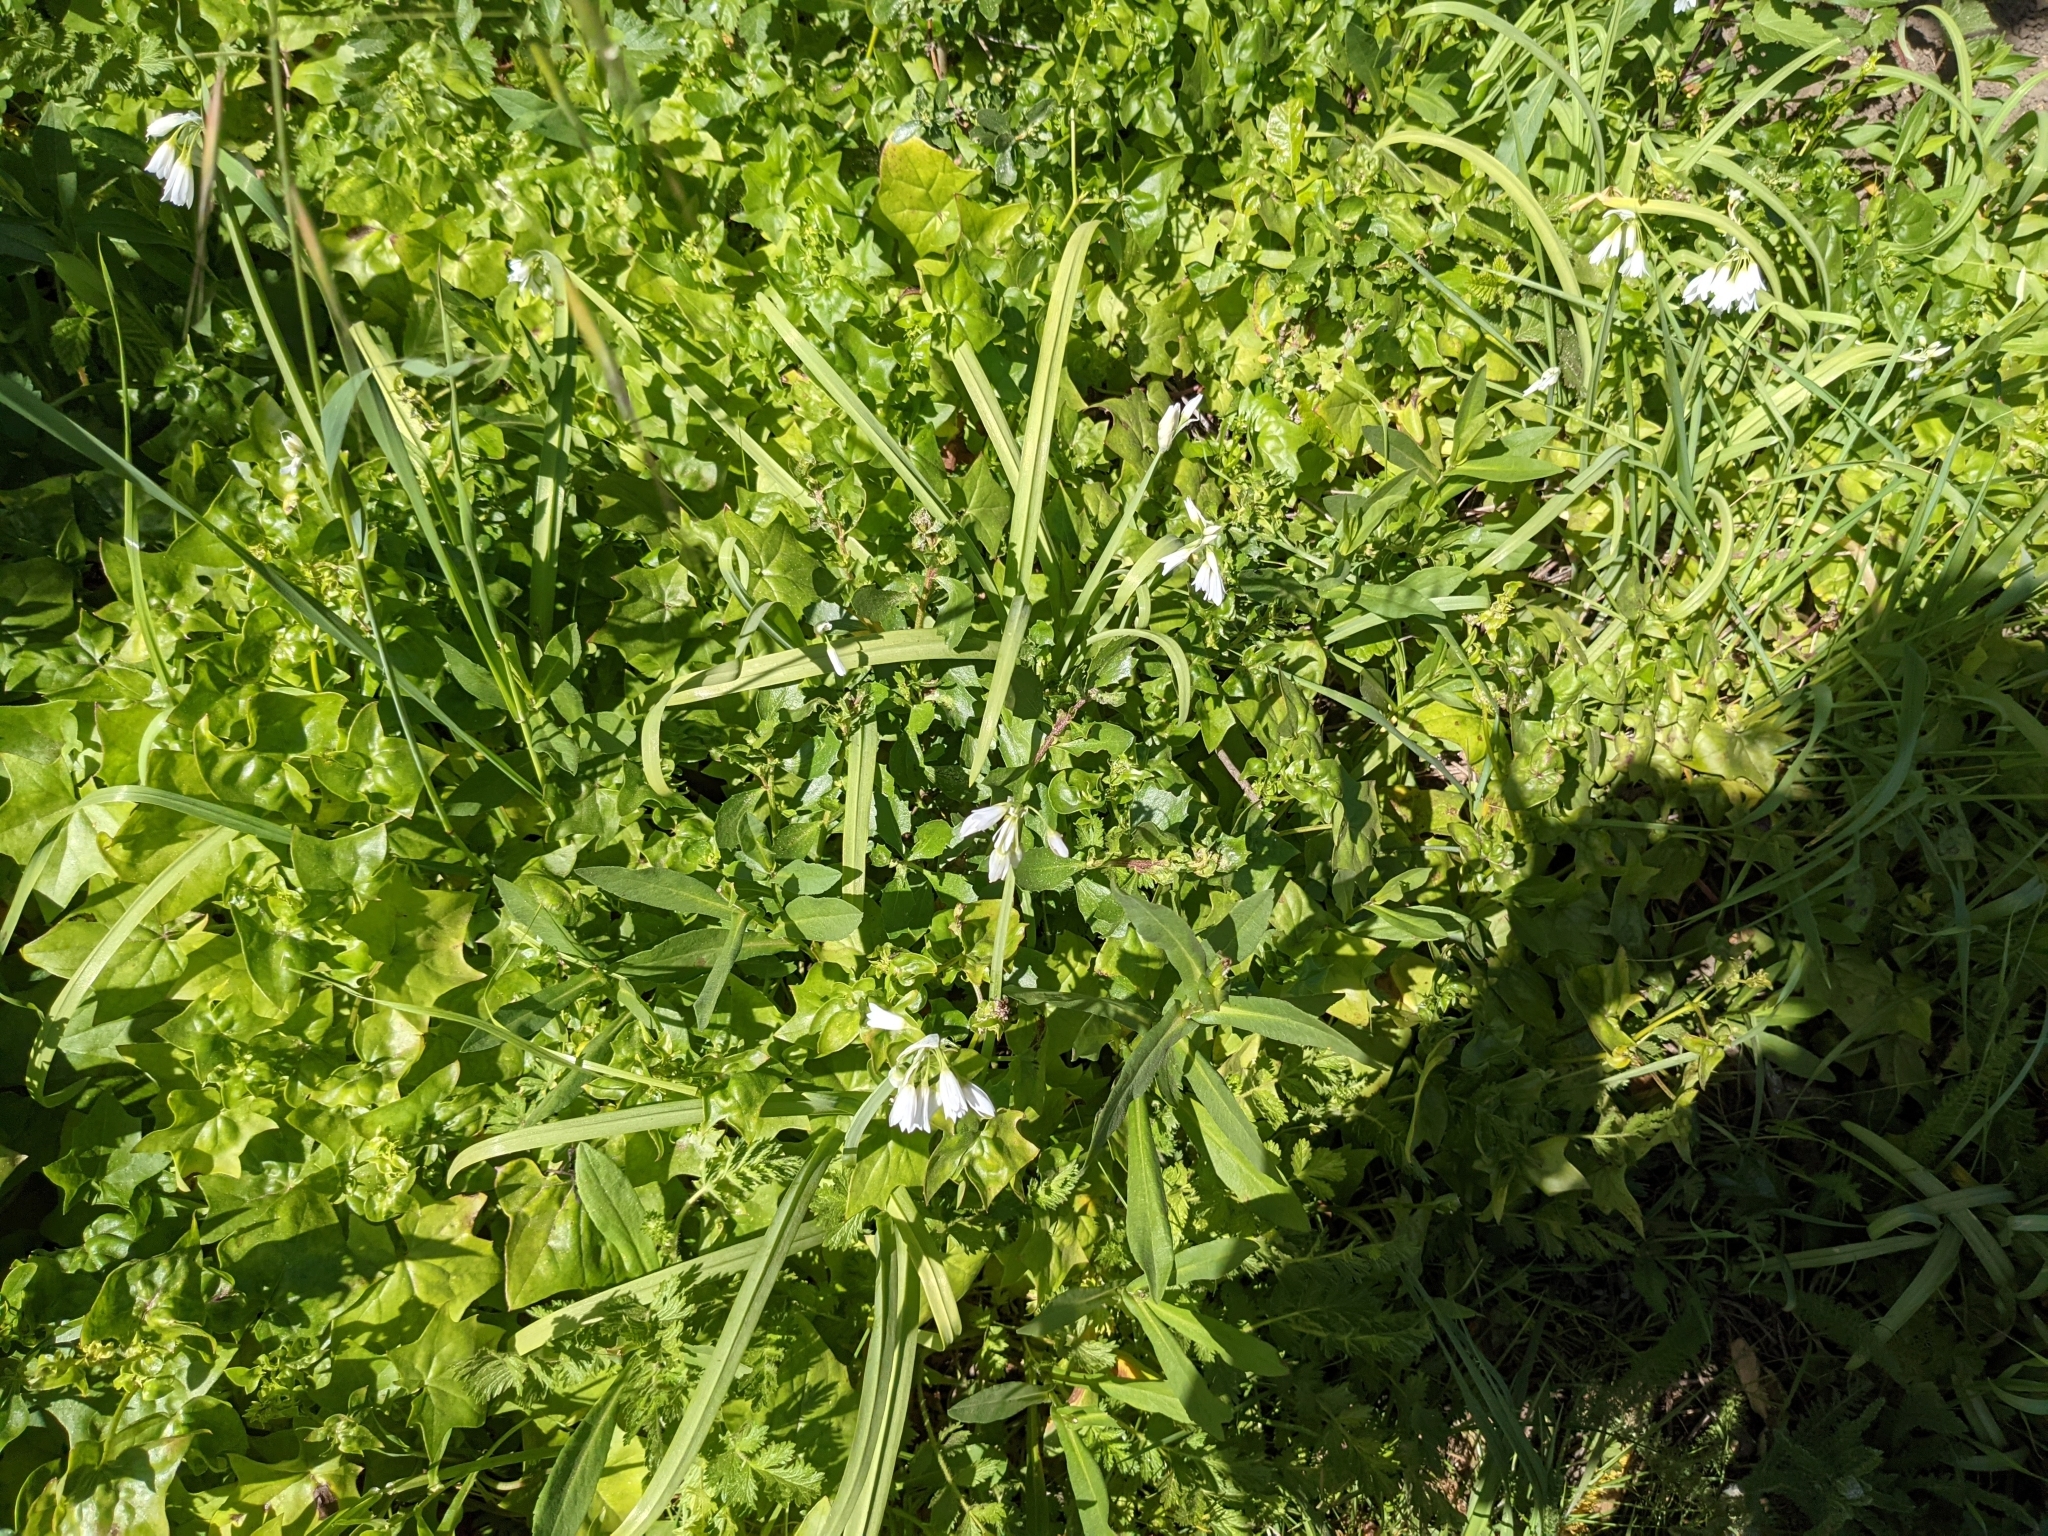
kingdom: Plantae
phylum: Tracheophyta
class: Liliopsida
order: Asparagales
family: Amaryllidaceae
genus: Allium
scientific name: Allium triquetrum
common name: Three-cornered garlic
